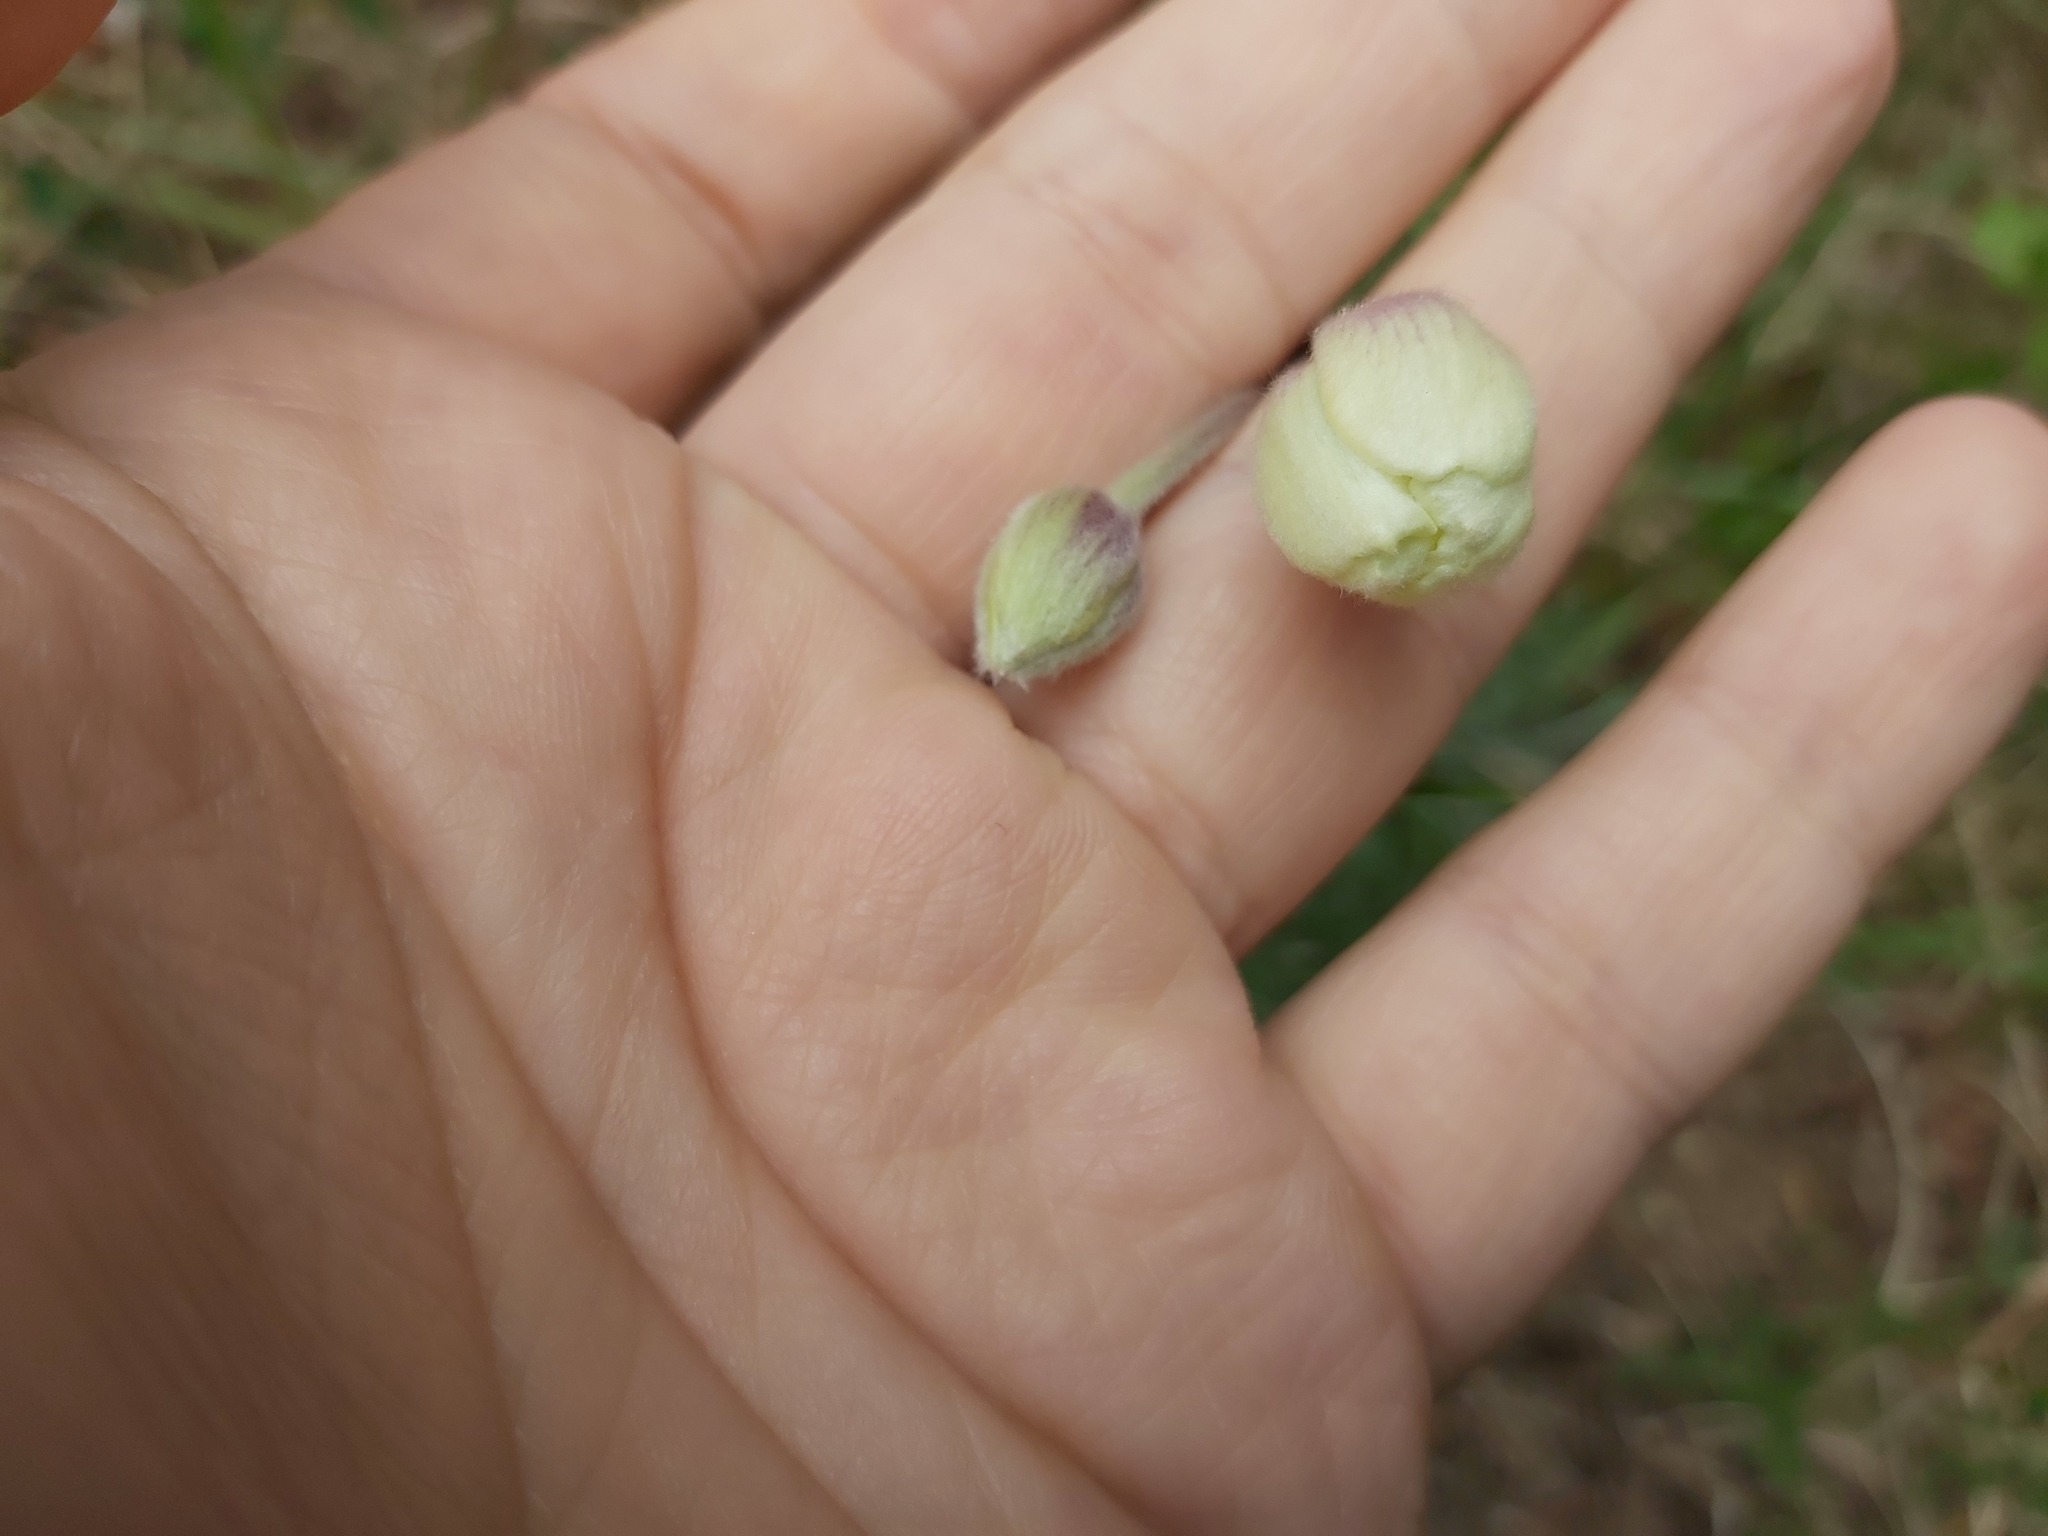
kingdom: Plantae
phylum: Tracheophyta
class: Magnoliopsida
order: Ranunculales
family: Ranunculaceae
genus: Anemone
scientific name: Anemone sylvestris
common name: Snowdrop anemone
